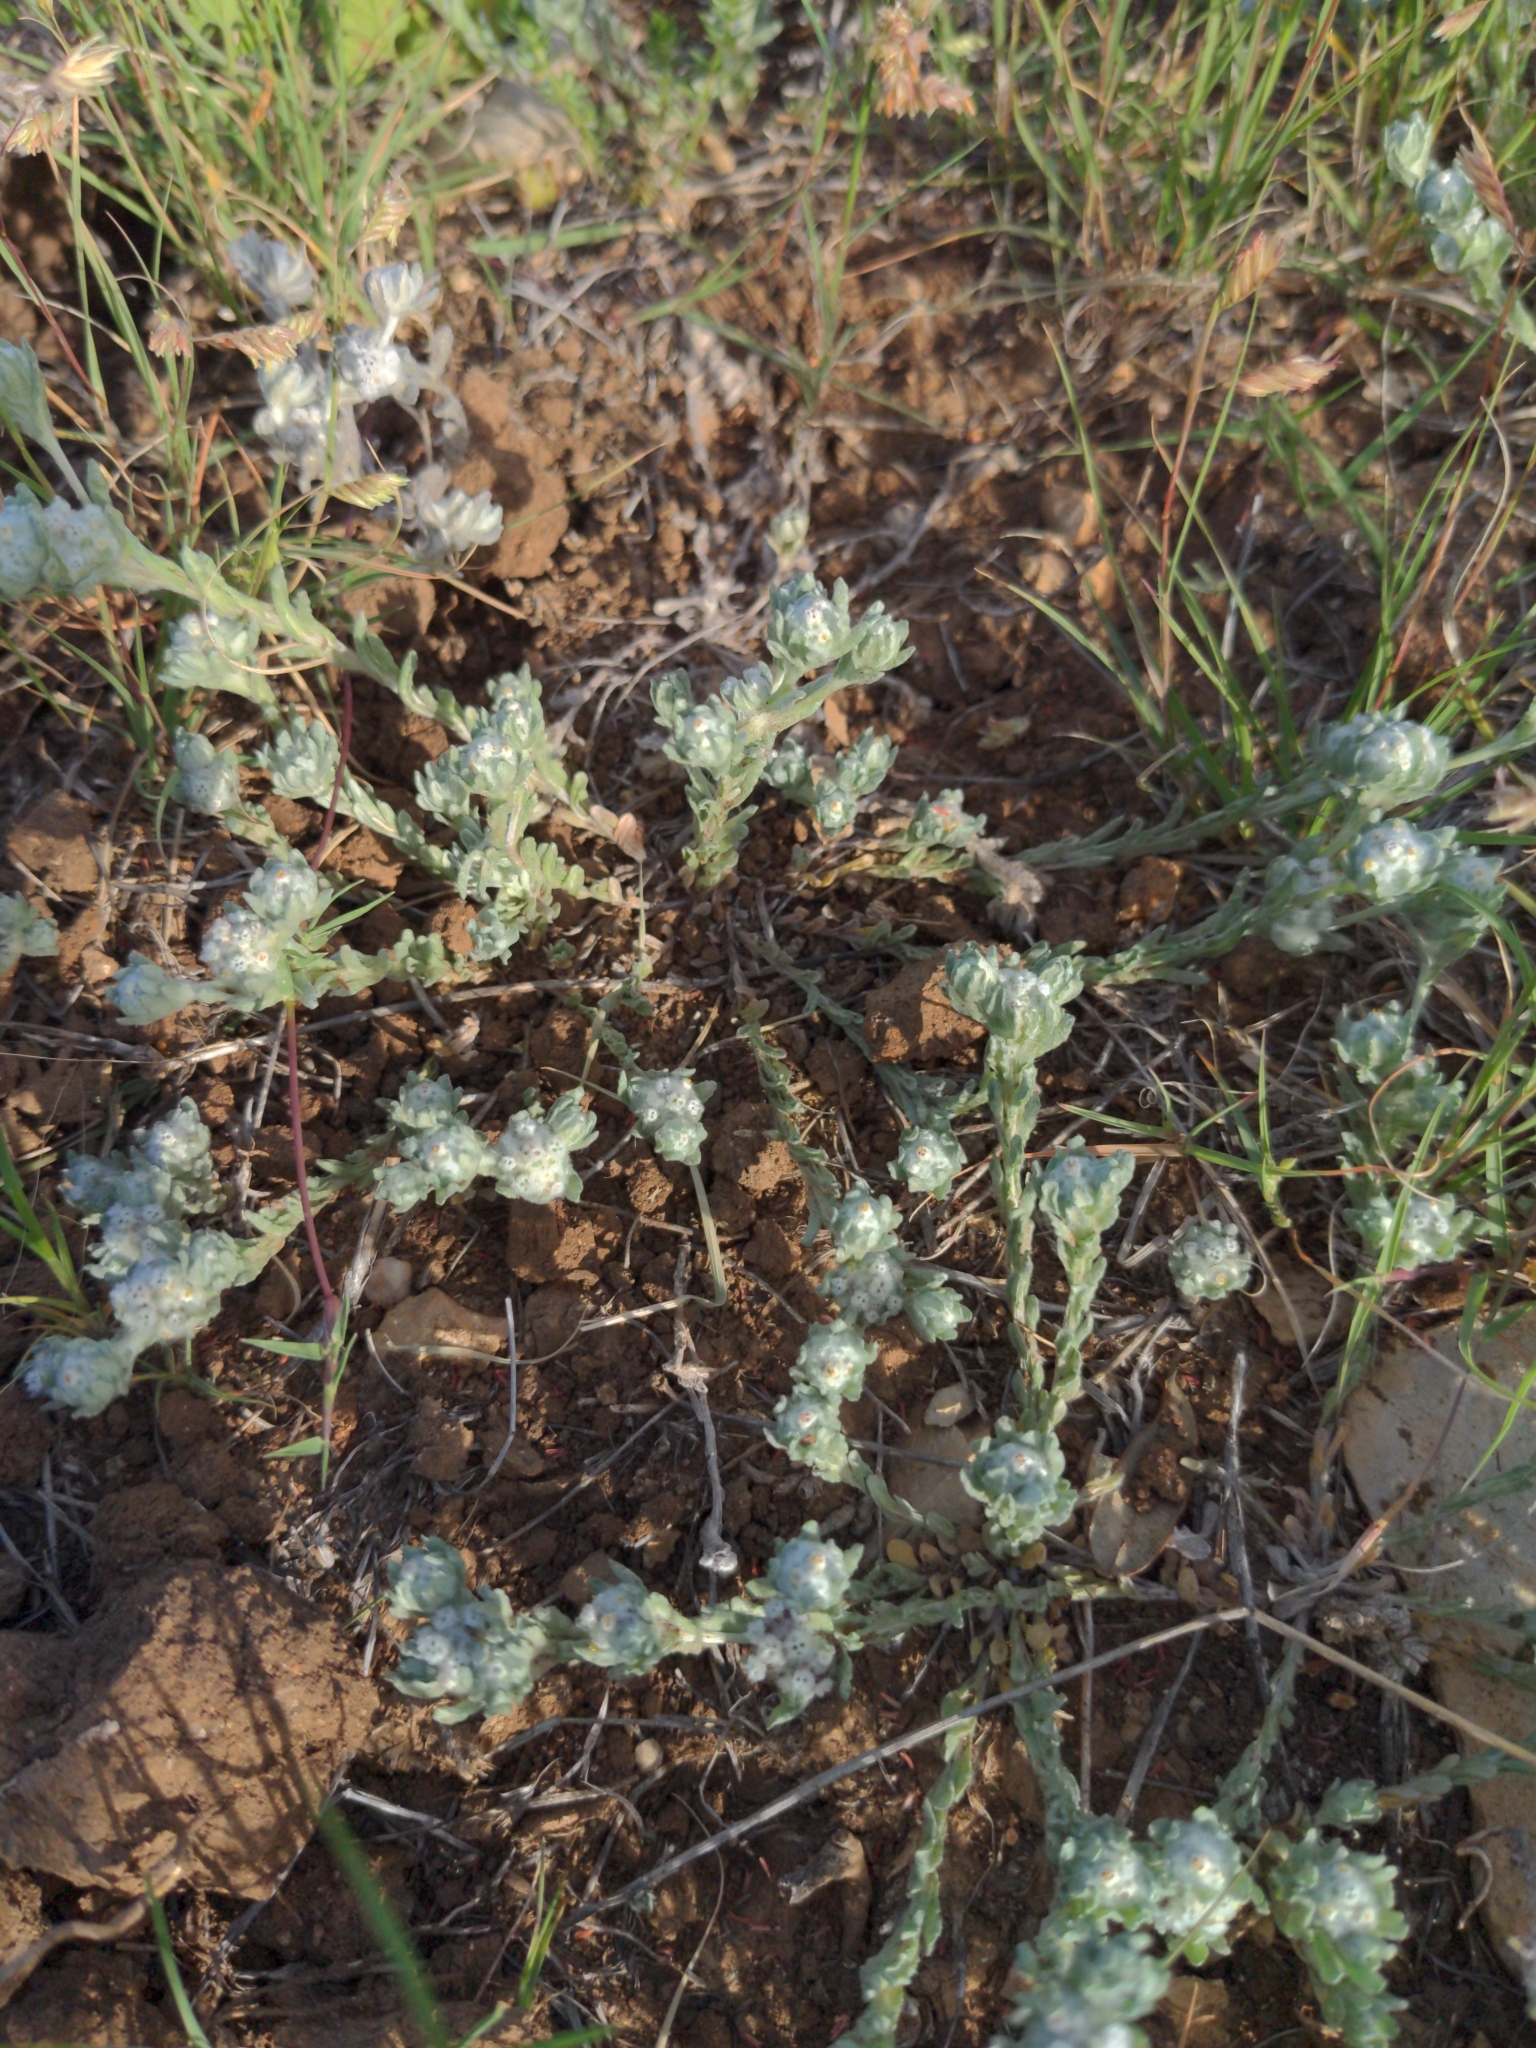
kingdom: Plantae
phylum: Tracheophyta
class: Magnoliopsida
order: Asterales
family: Asteraceae
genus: Diaperia
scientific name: Diaperia verna
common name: Many-stem rabbit-tobacco
